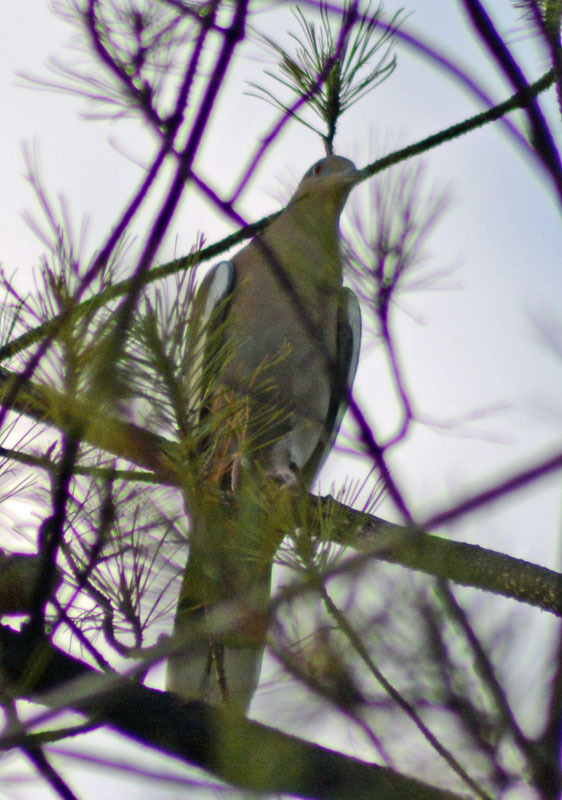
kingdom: Animalia
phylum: Chordata
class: Aves
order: Columbiformes
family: Columbidae
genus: Zenaida
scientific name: Zenaida asiatica
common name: White-winged dove
